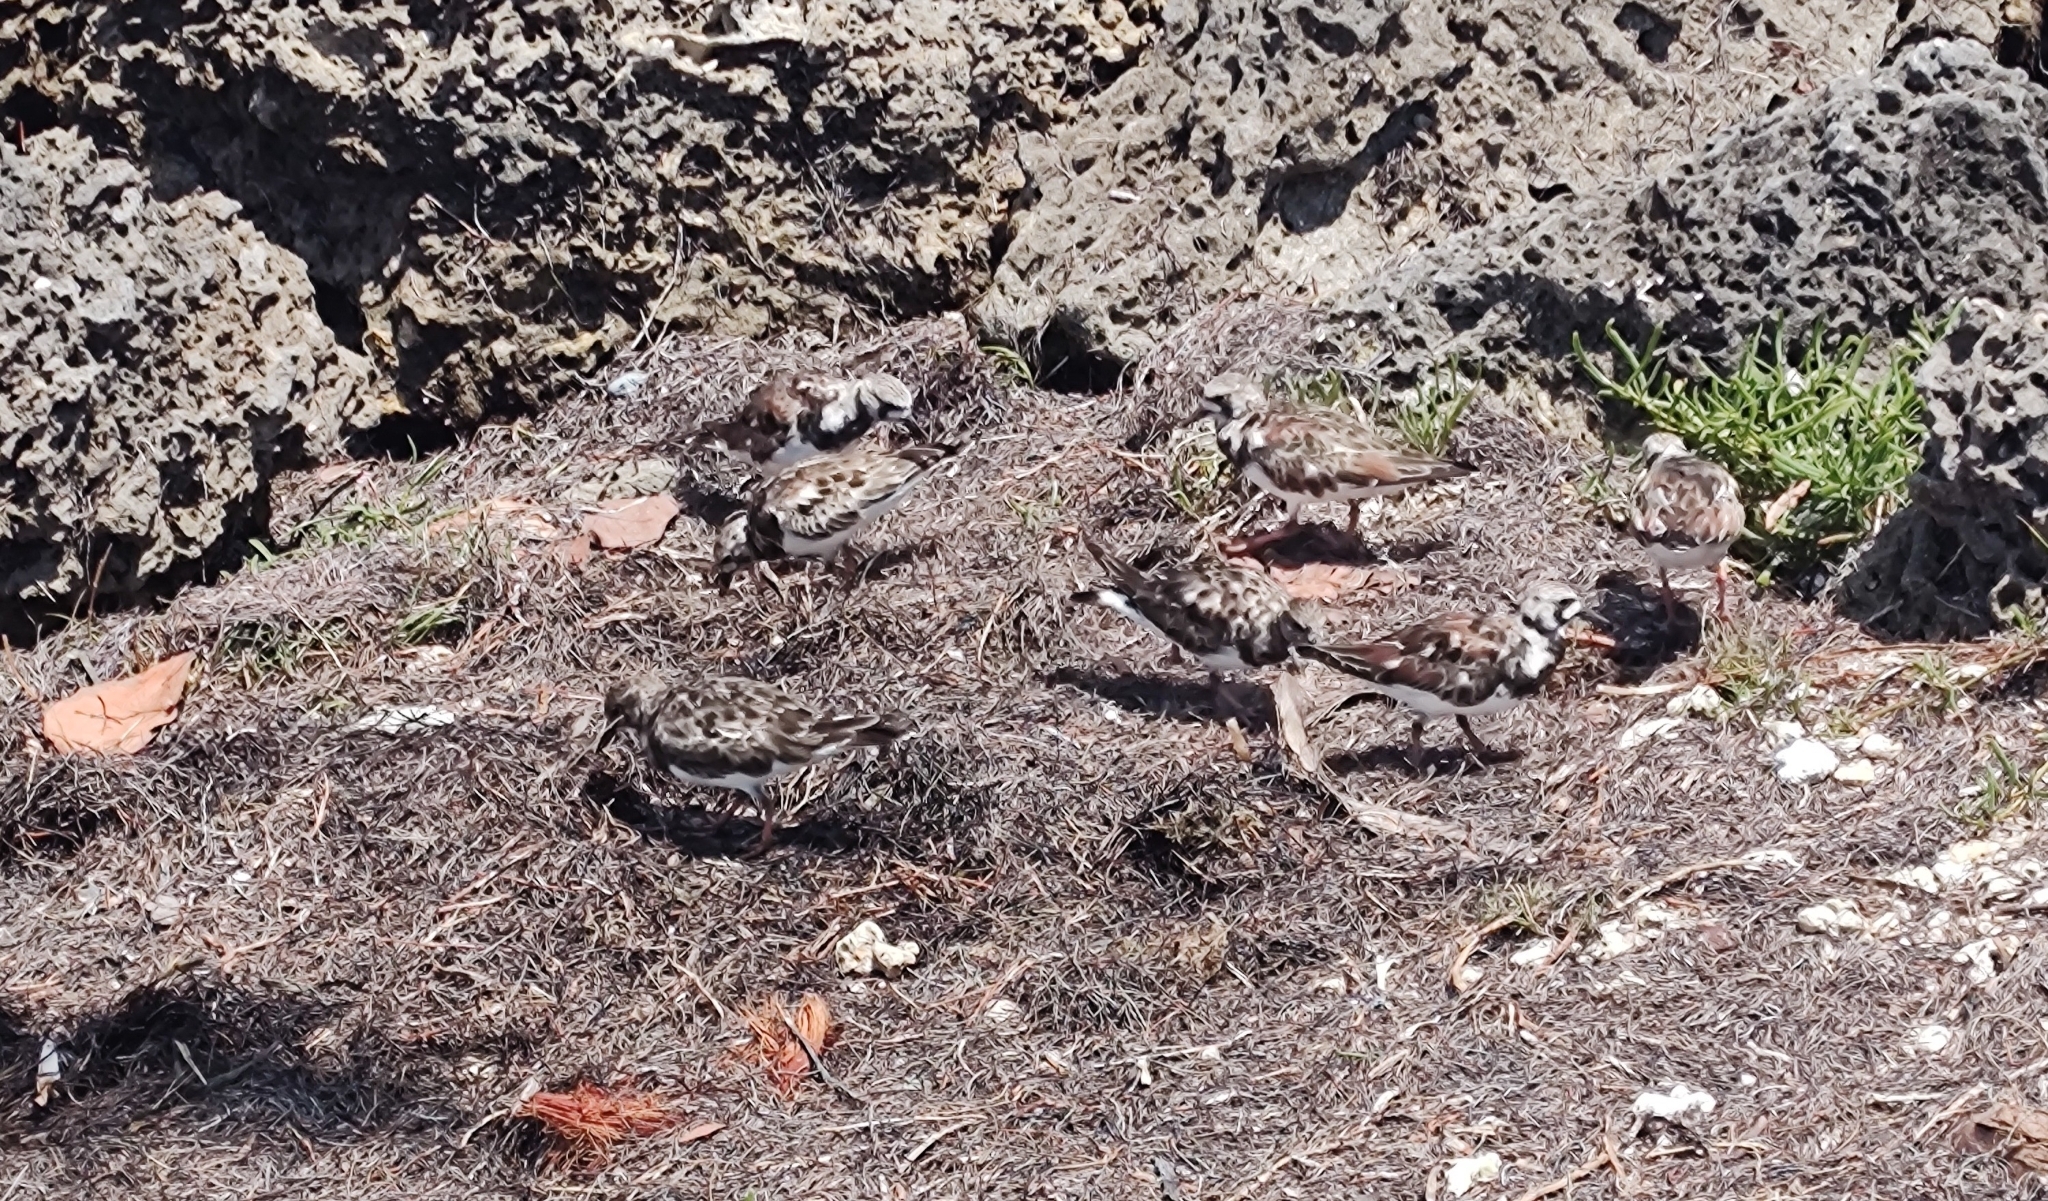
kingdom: Animalia
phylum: Chordata
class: Aves
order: Charadriiformes
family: Scolopacidae
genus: Arenaria
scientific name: Arenaria interpres
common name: Ruddy turnstone
